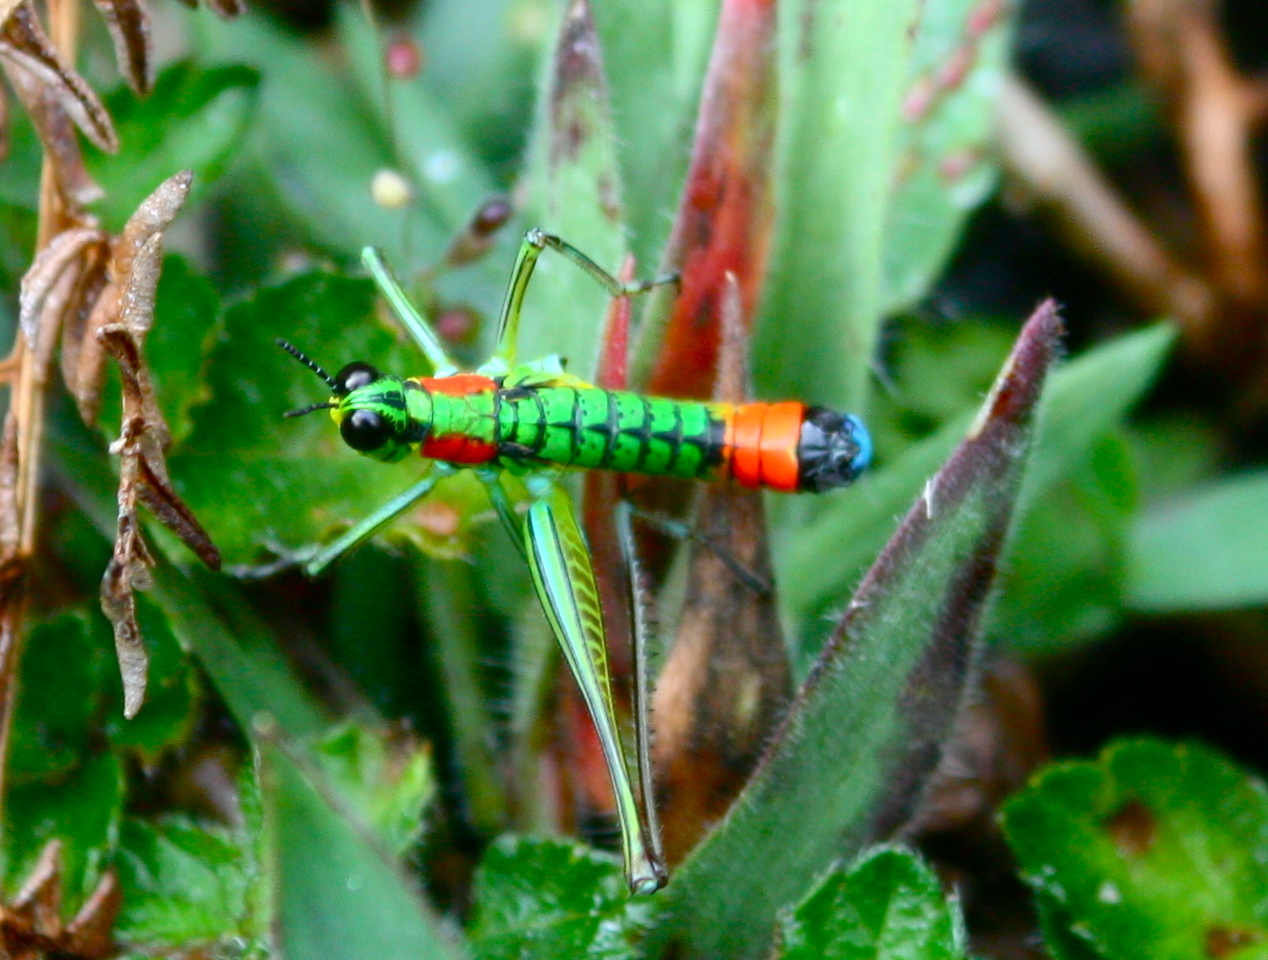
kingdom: Animalia
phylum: Arthropoda
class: Insecta
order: Orthoptera
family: Eumastacidae
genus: Paramastax
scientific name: Paramastax rosenbergi
